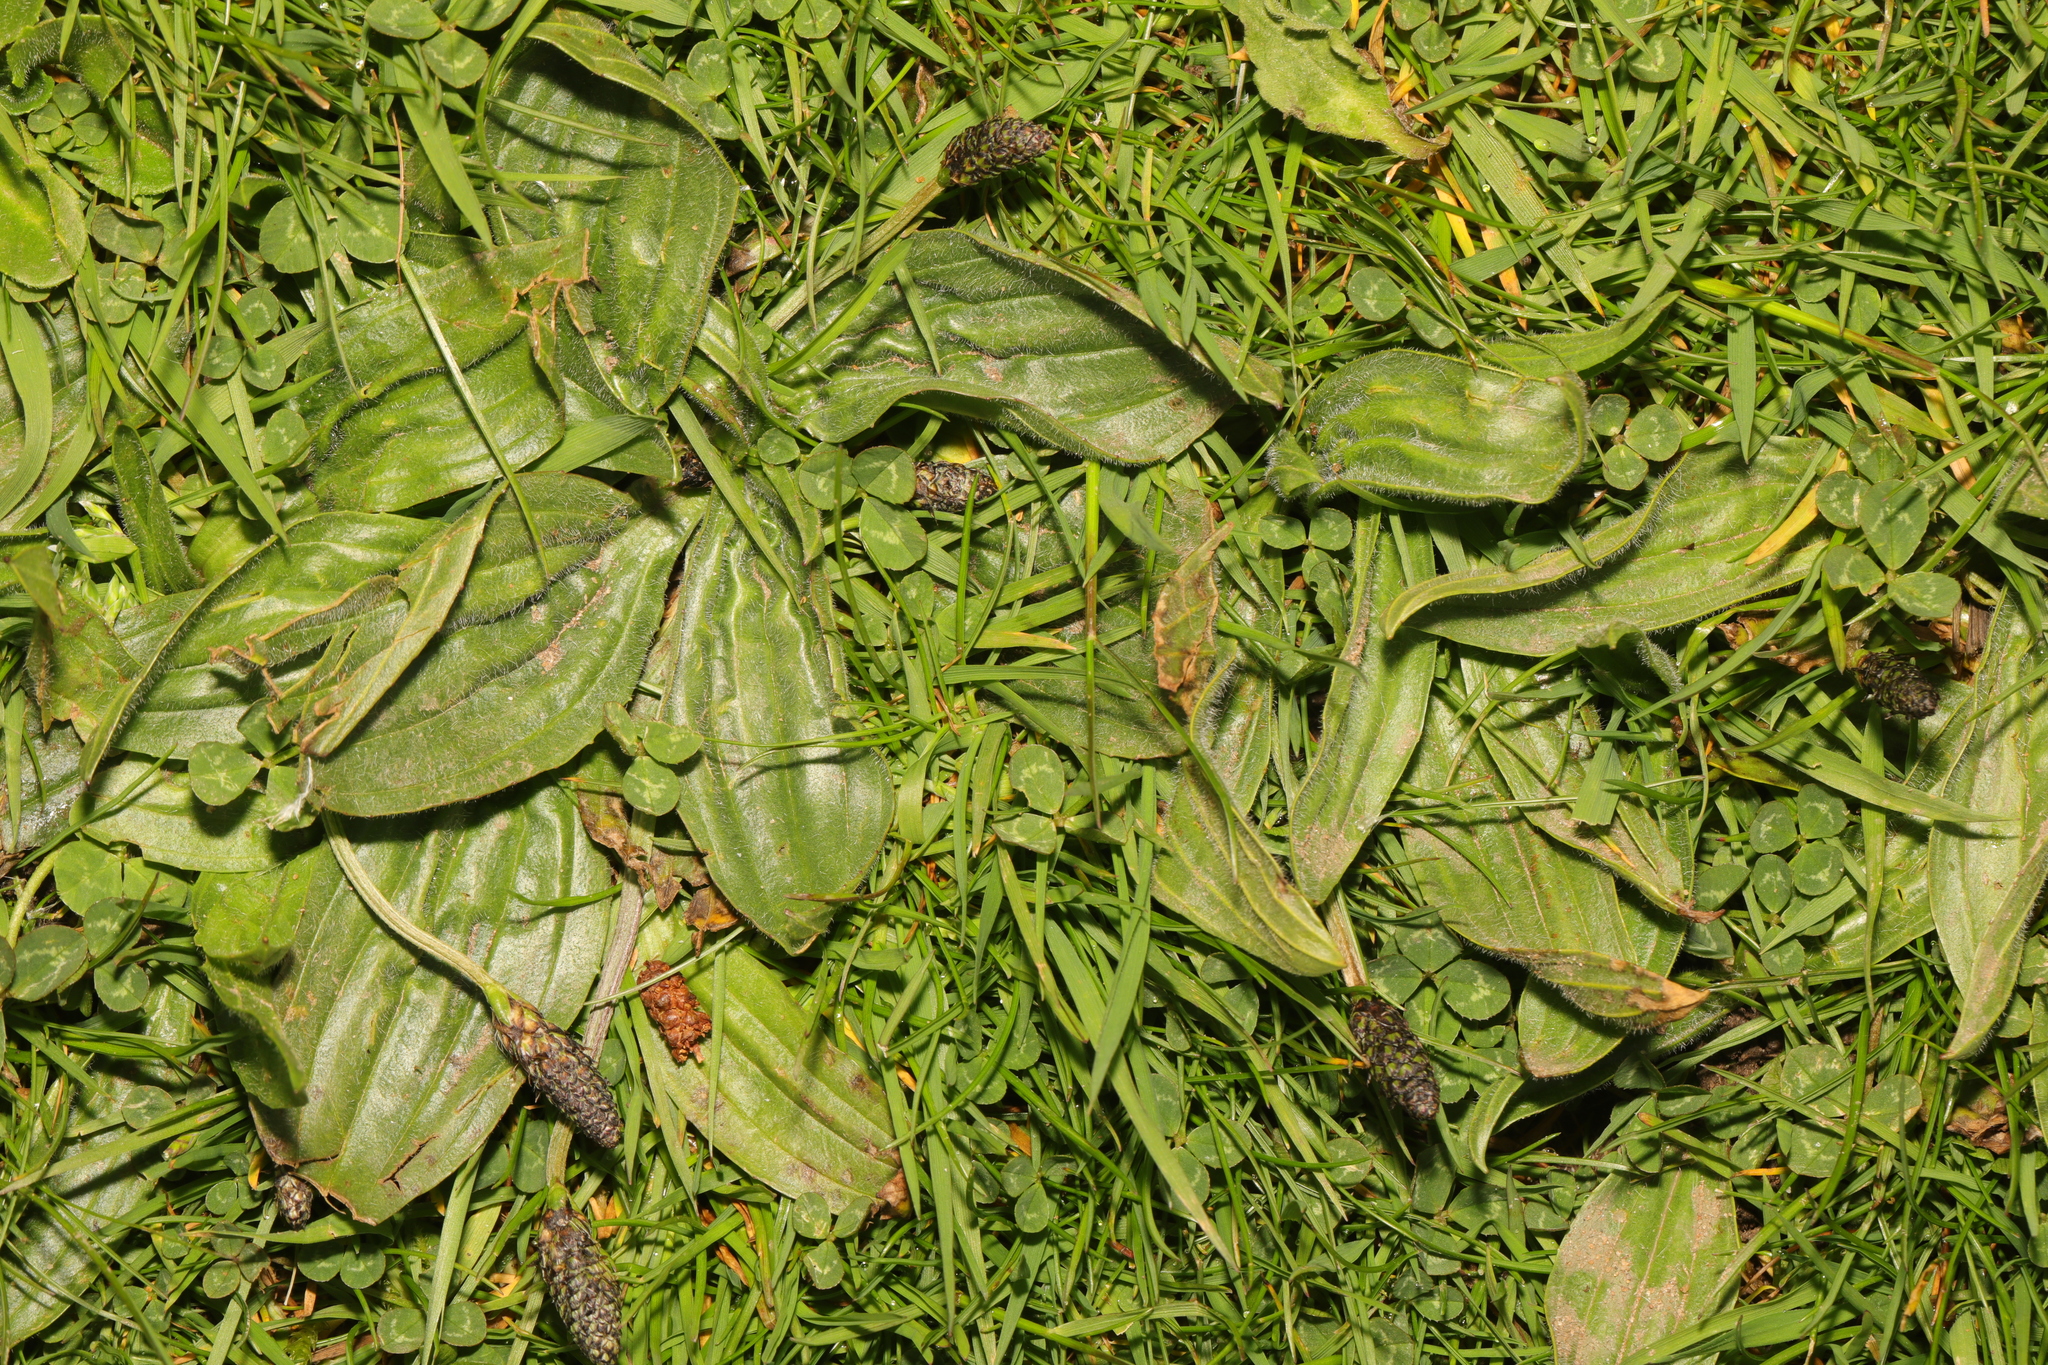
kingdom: Plantae
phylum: Tracheophyta
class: Magnoliopsida
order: Lamiales
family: Plantaginaceae
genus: Plantago
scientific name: Plantago lanceolata
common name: Ribwort plantain
